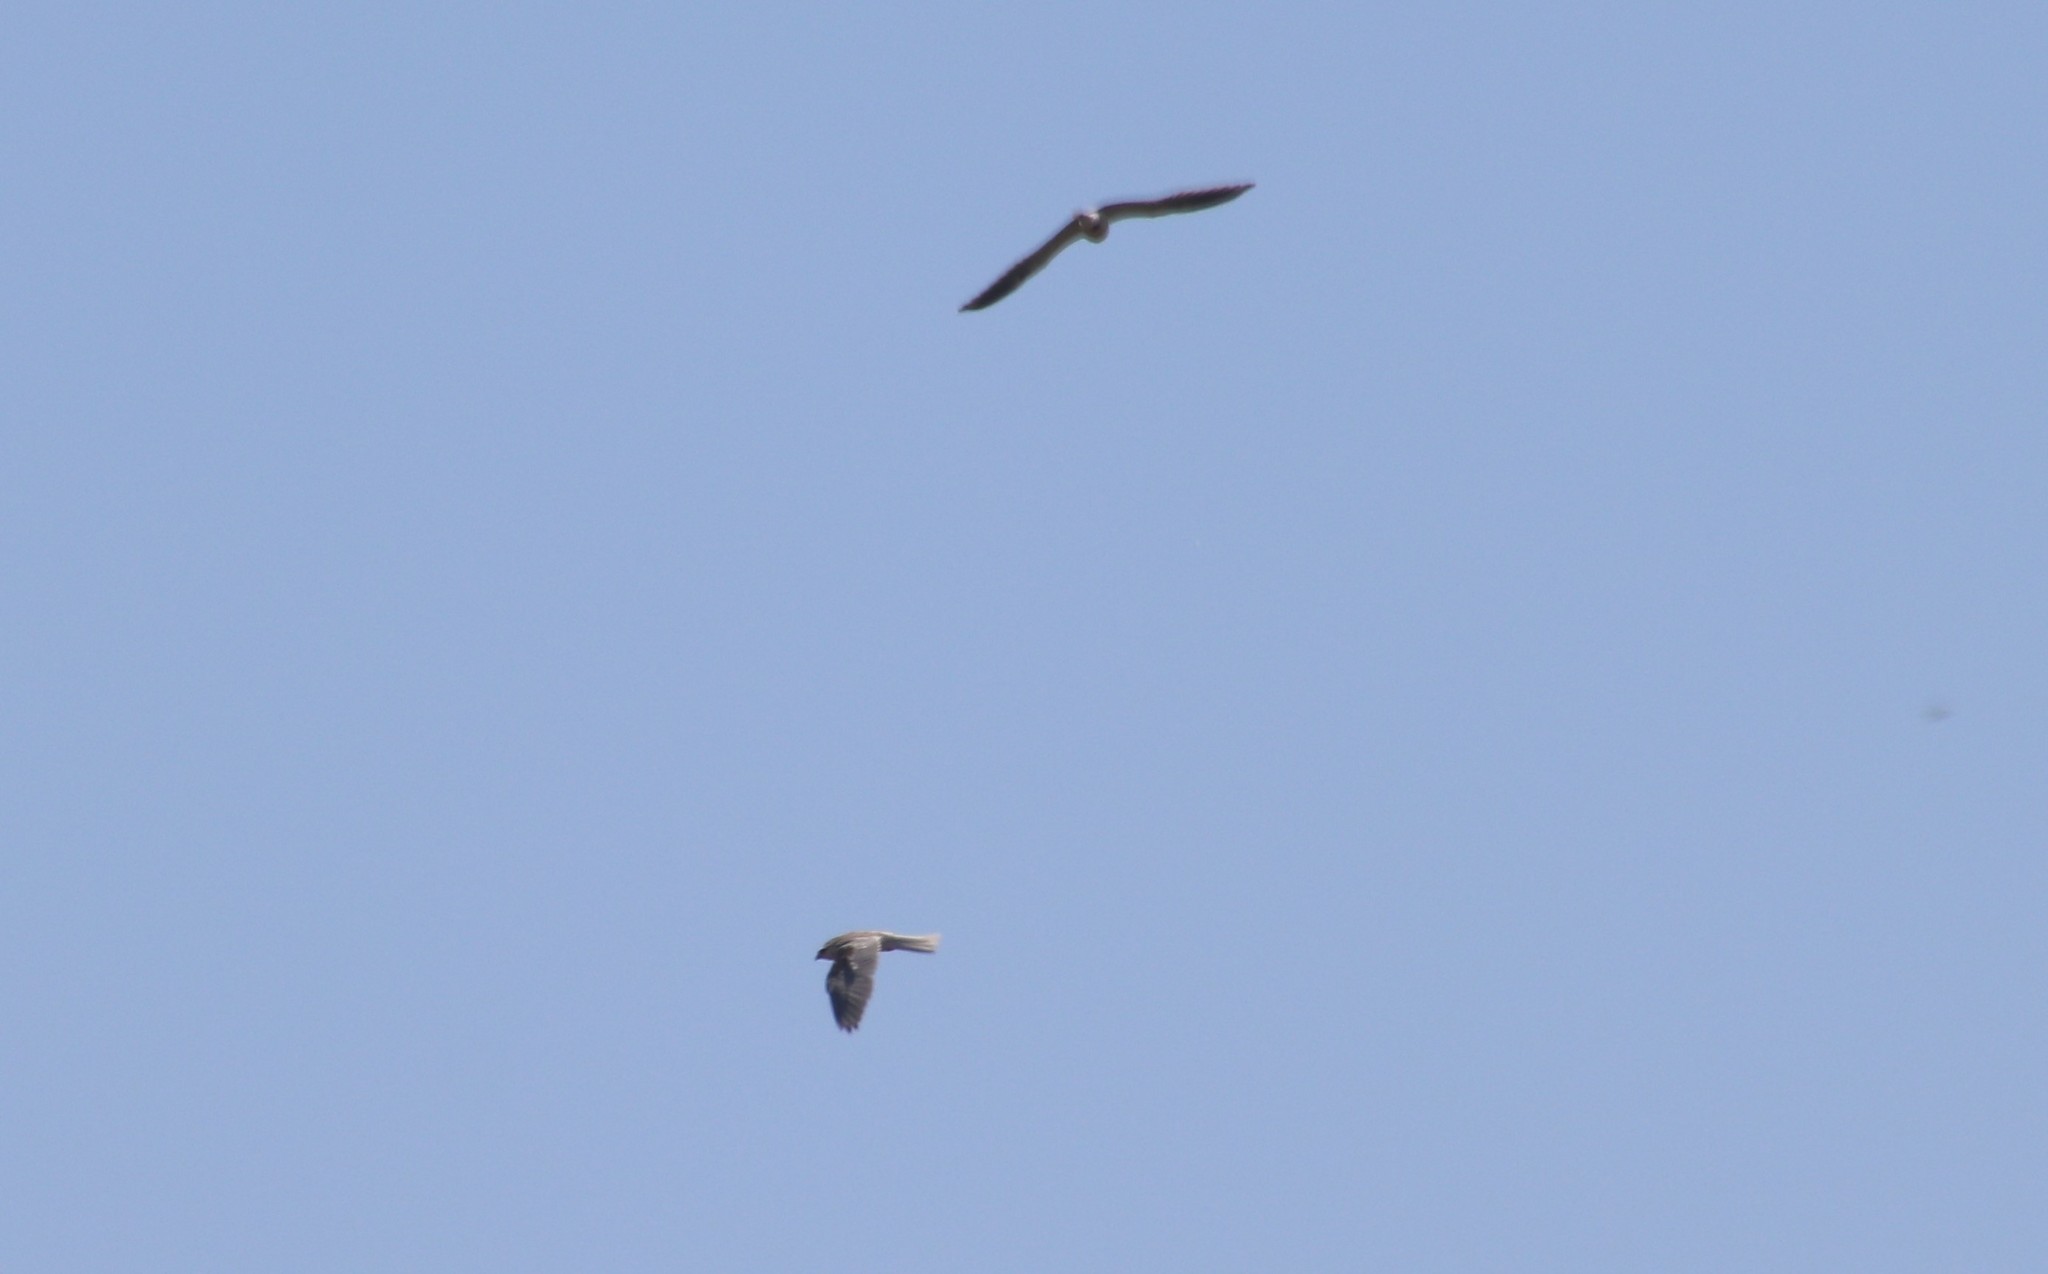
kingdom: Animalia
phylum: Chordata
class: Aves
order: Accipitriformes
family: Accipitridae
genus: Elanus
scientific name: Elanus leucurus
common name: White-tailed kite
